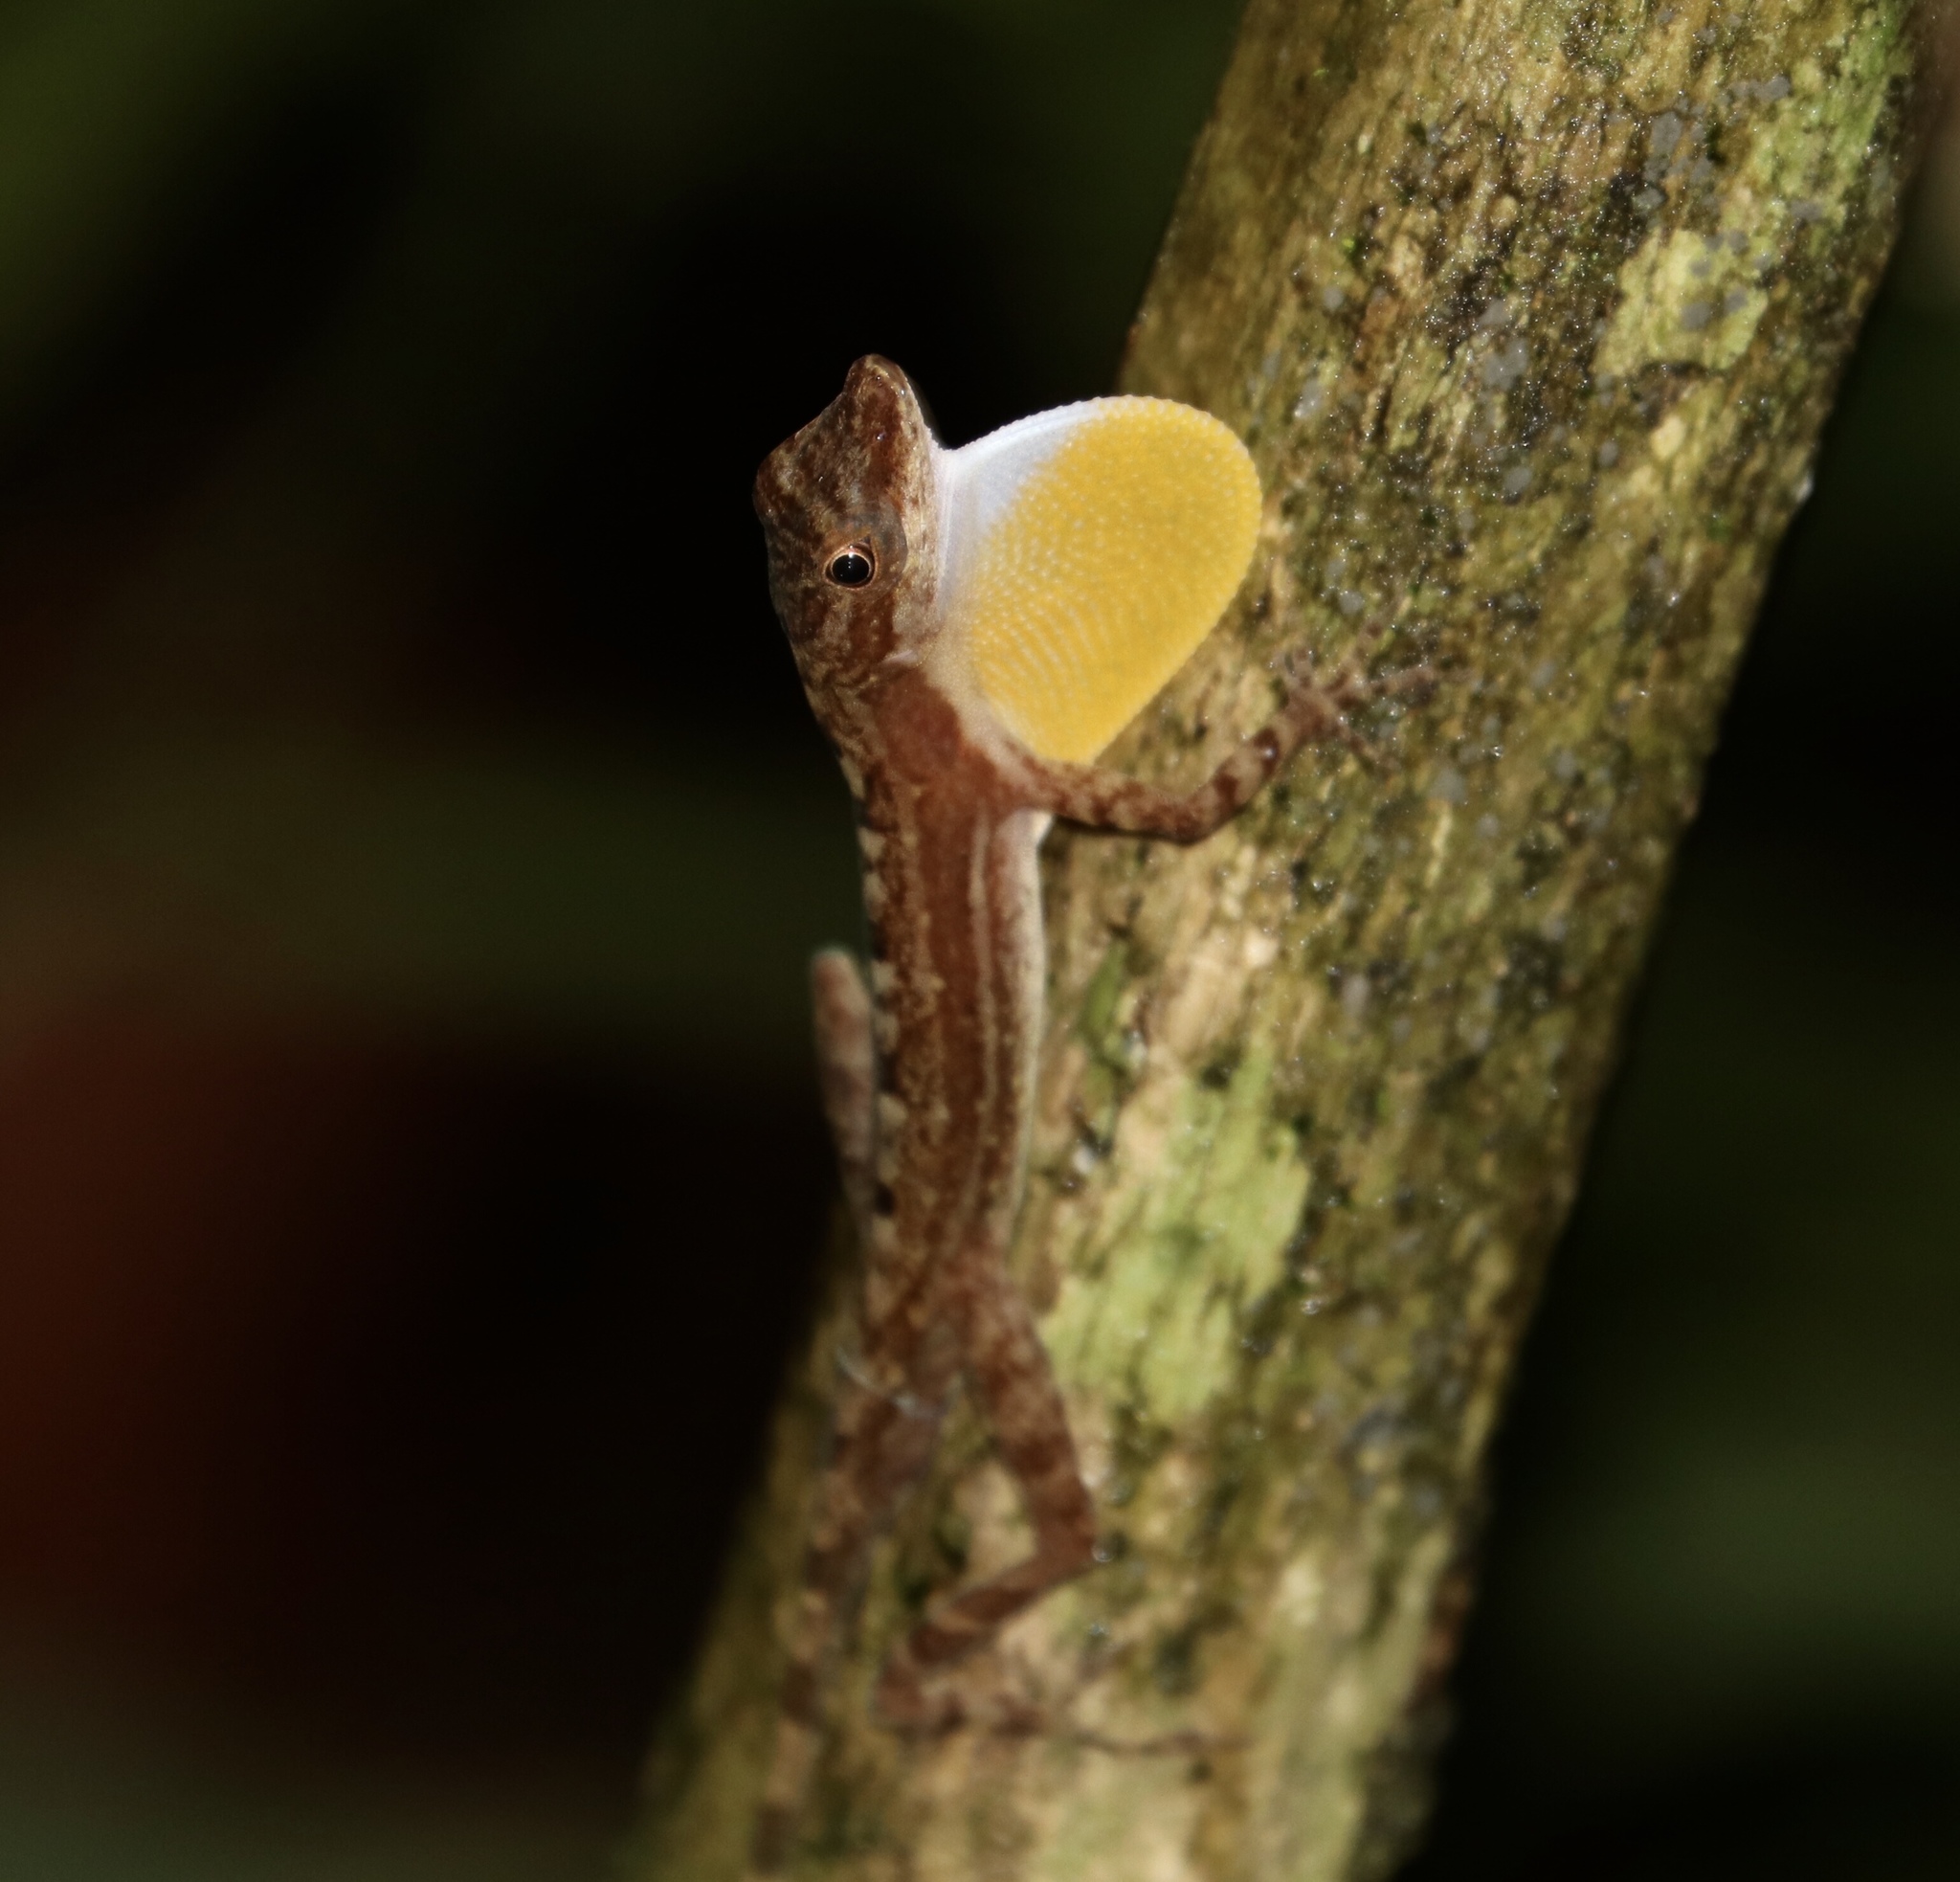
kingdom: Animalia
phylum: Chordata
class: Squamata
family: Dactyloidae
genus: Anolis
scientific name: Anolis apletophallus
